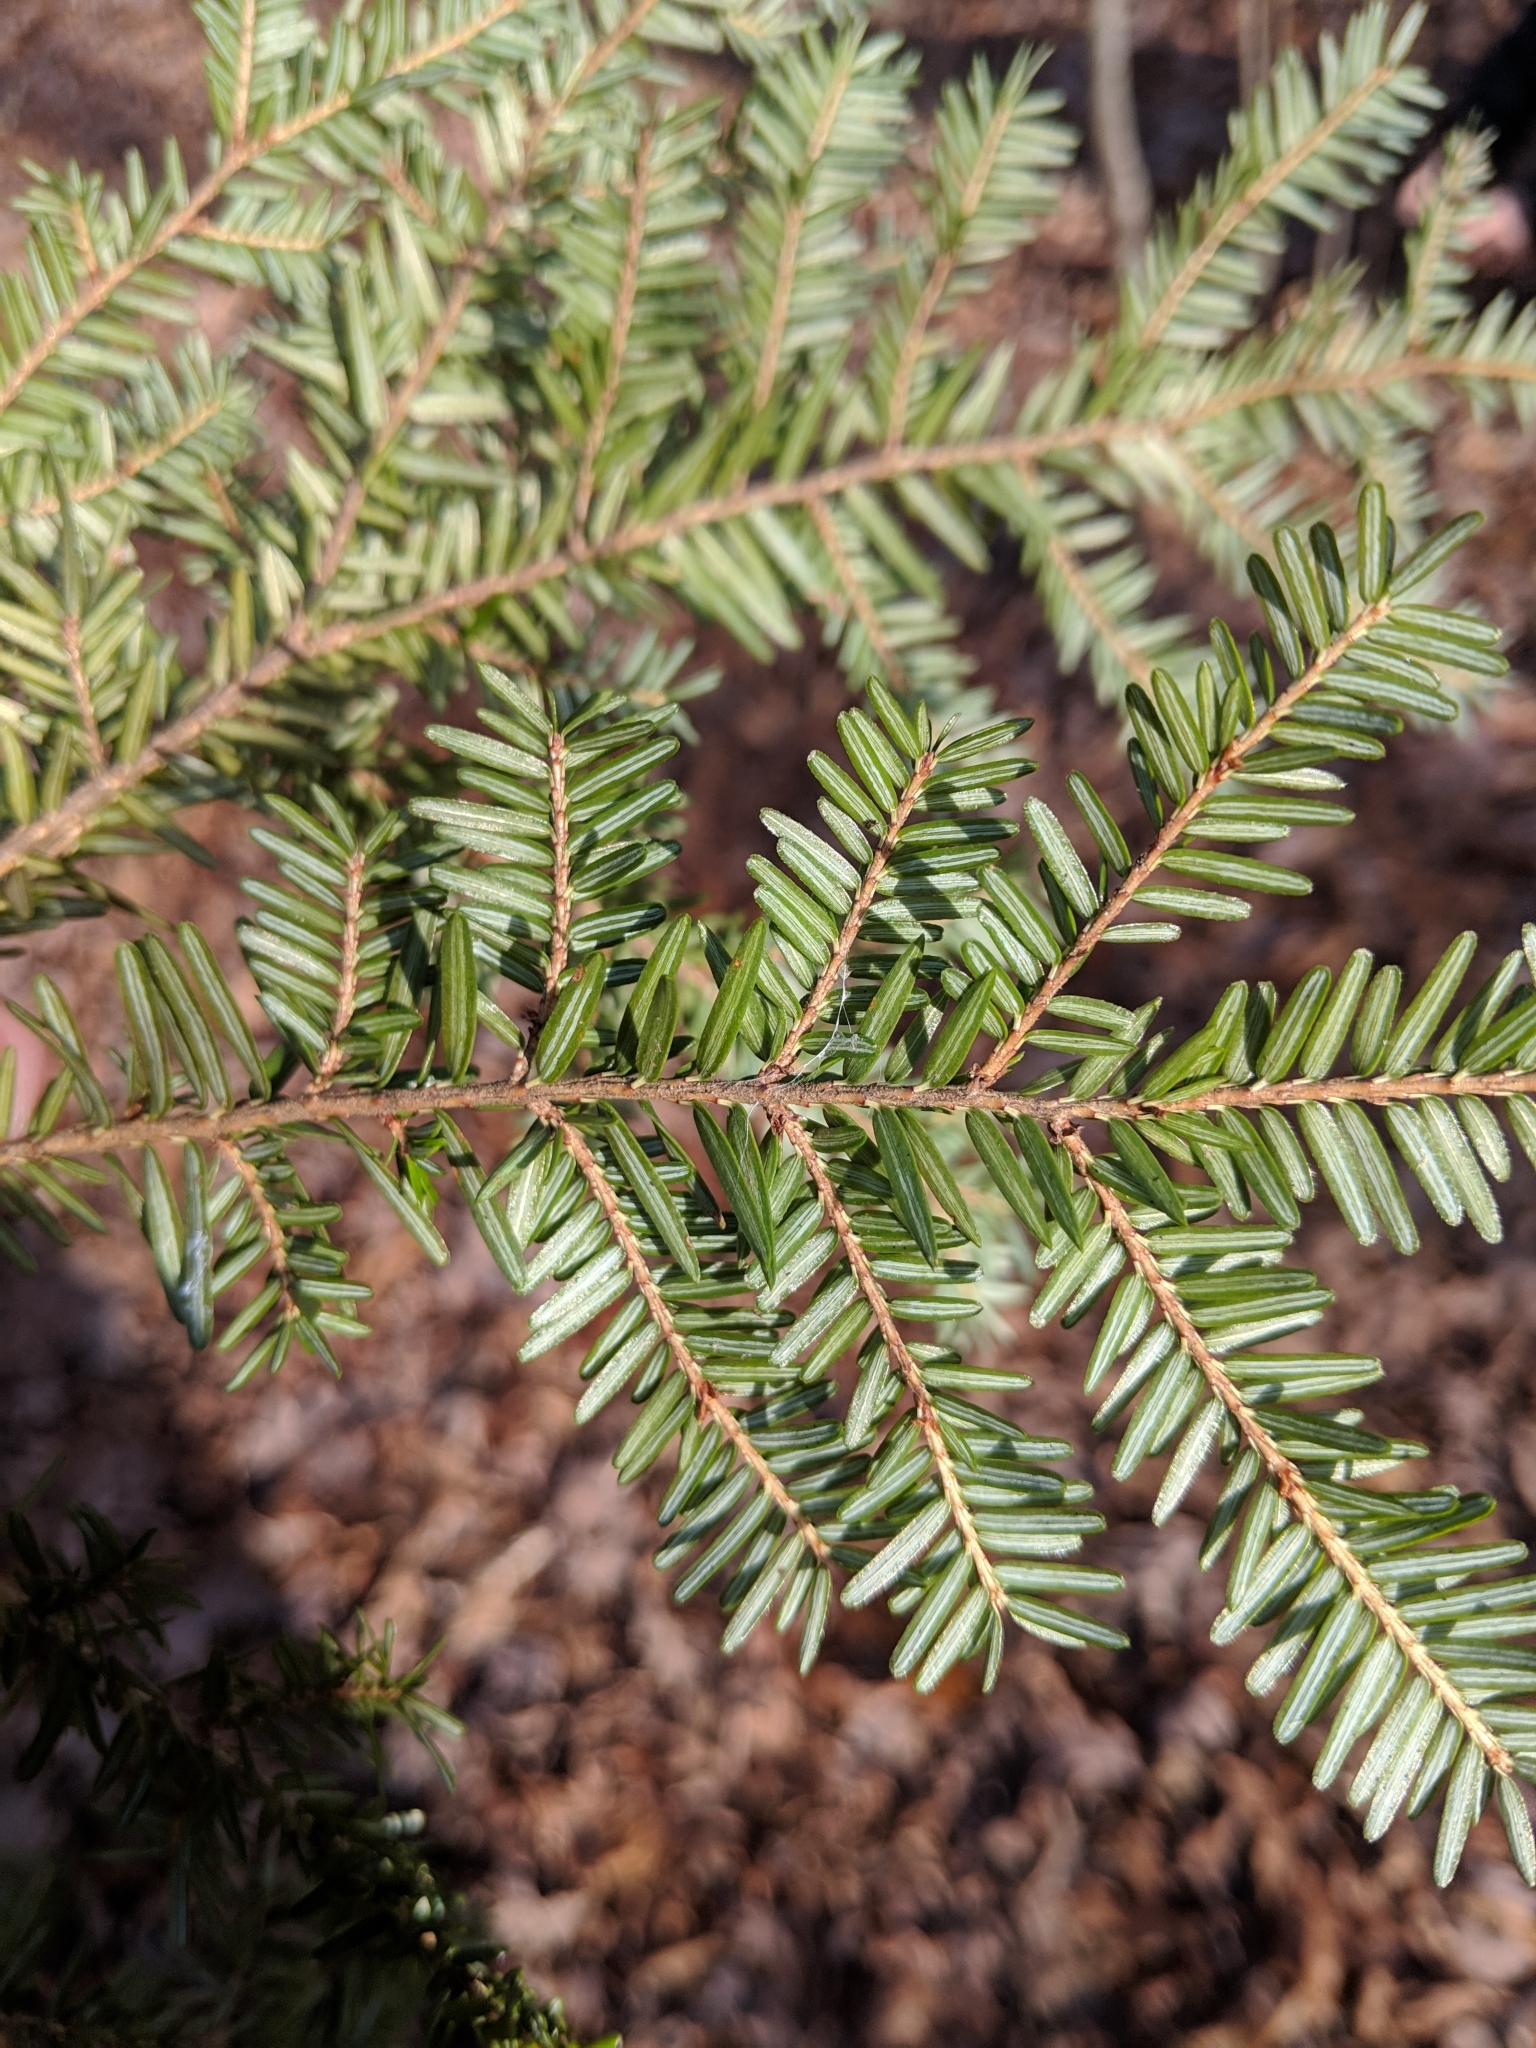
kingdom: Plantae
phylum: Tracheophyta
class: Pinopsida
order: Pinales
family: Pinaceae
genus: Tsuga
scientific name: Tsuga canadensis
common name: Eastern hemlock
